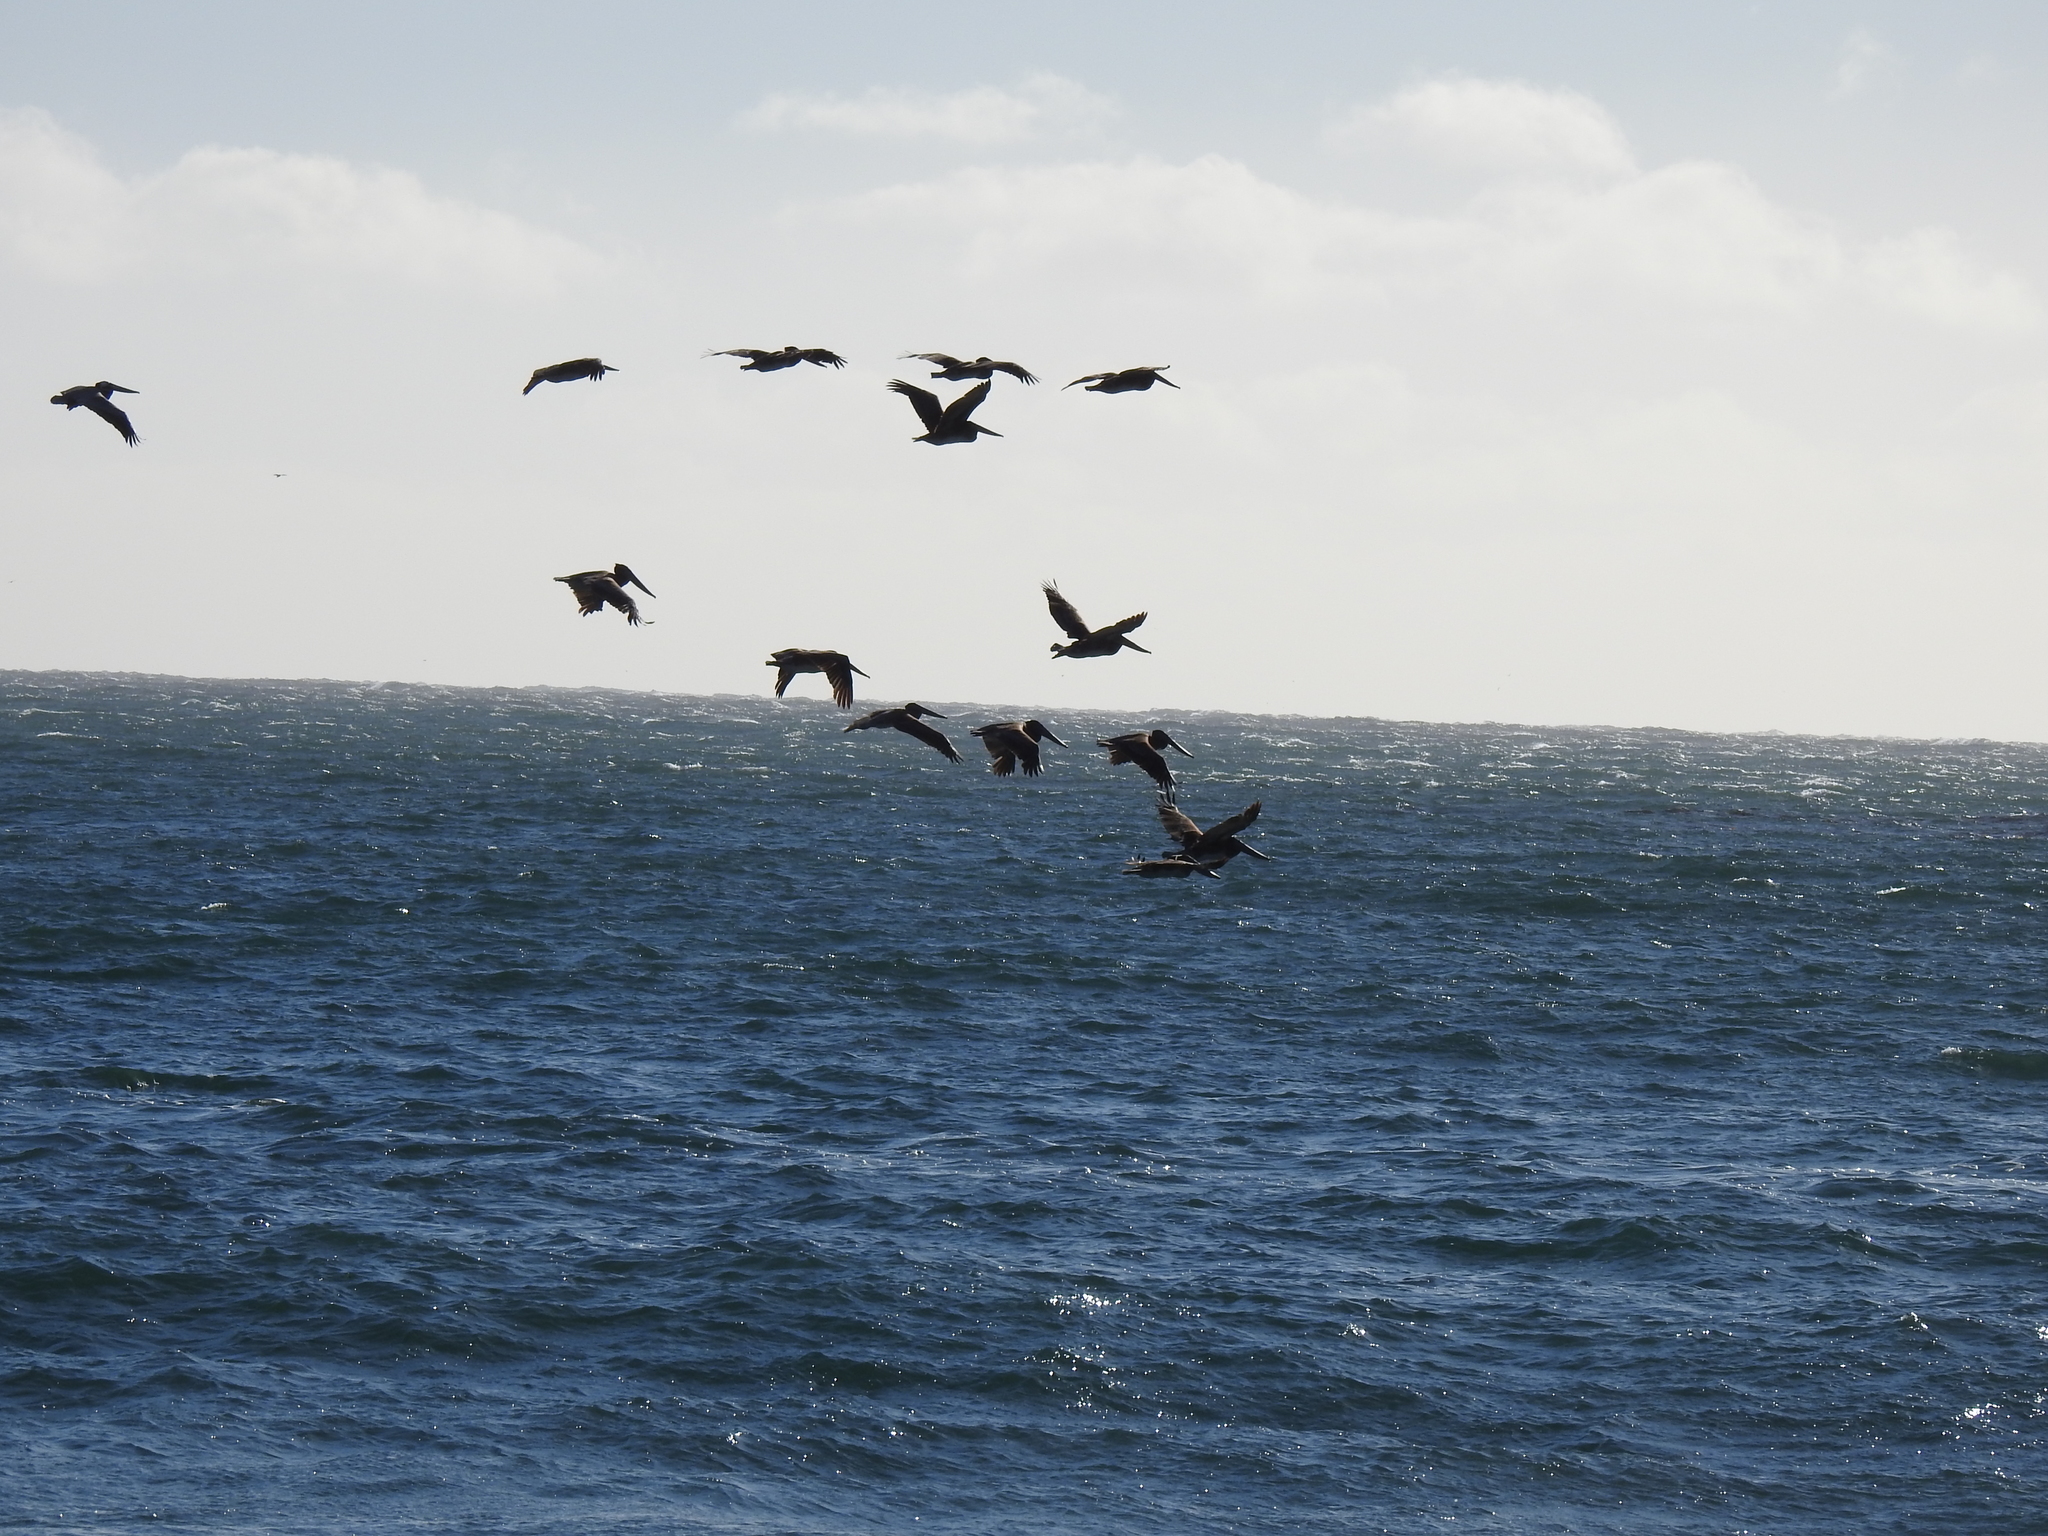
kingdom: Animalia
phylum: Chordata
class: Aves
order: Pelecaniformes
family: Pelecanidae
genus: Pelecanus
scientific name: Pelecanus occidentalis
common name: Brown pelican
